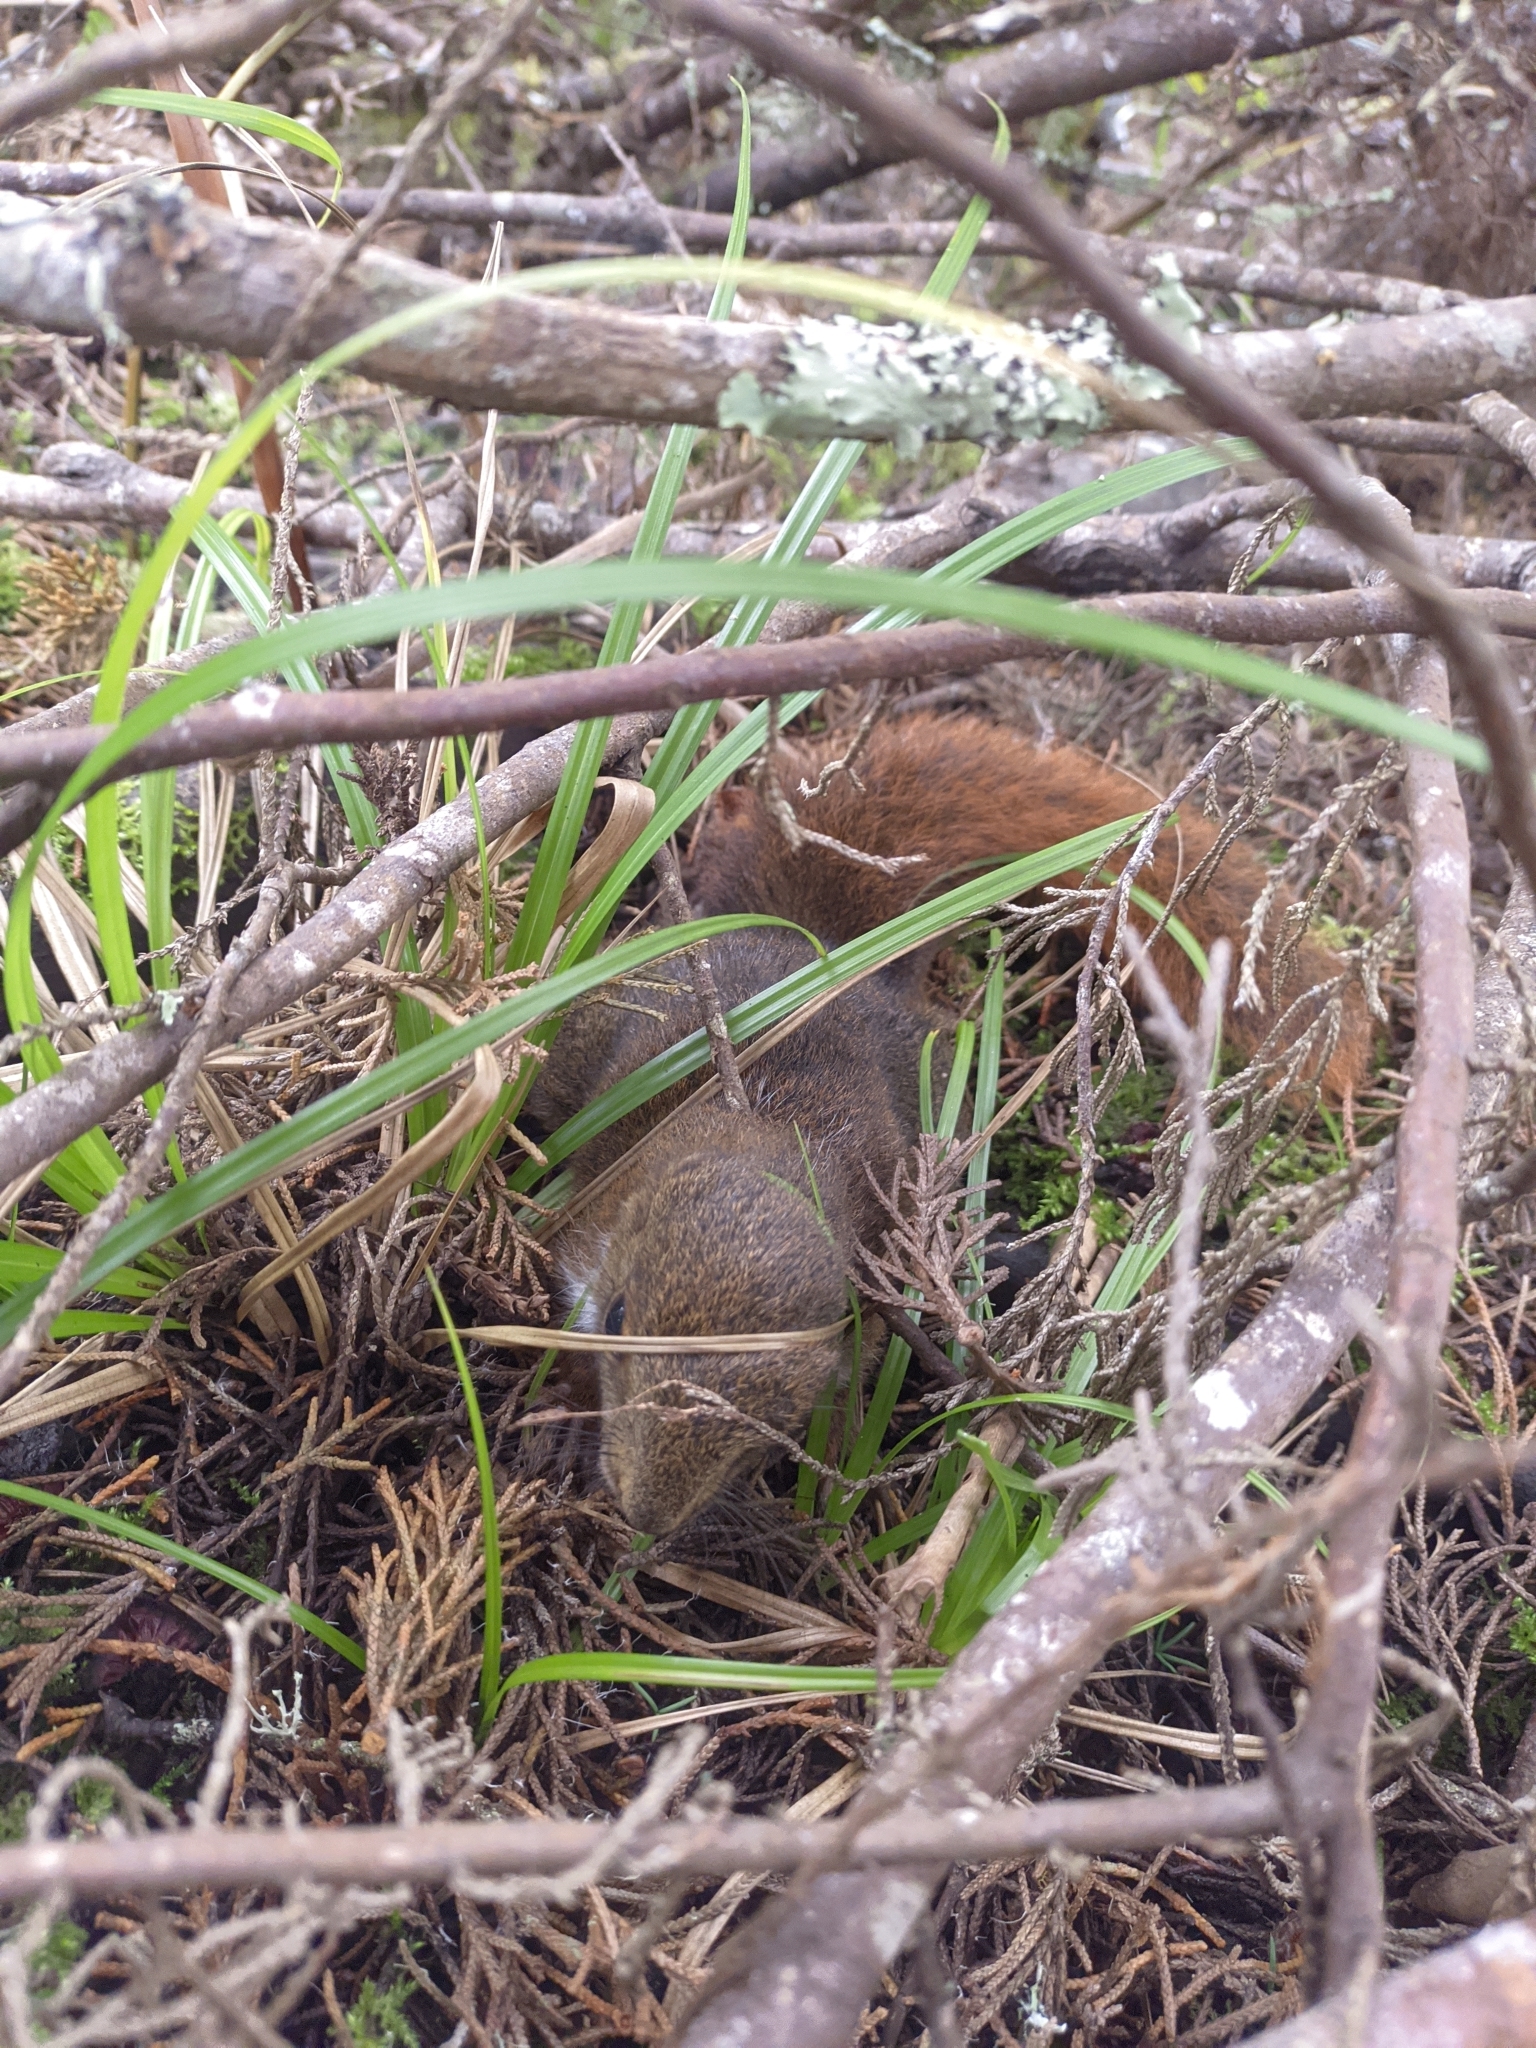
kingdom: Animalia
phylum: Chordata
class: Mammalia
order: Rodentia
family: Sciuridae
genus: Sciurus
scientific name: Sciurus granatensis
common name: Red-tailed squirrel
